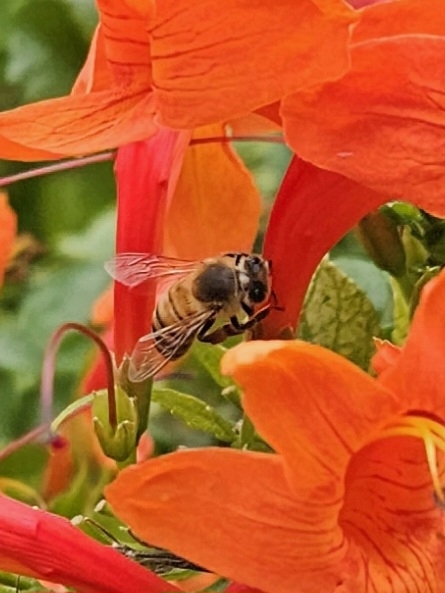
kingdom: Animalia
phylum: Arthropoda
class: Insecta
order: Hymenoptera
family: Apidae
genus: Apis
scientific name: Apis mellifera
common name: Honey bee
